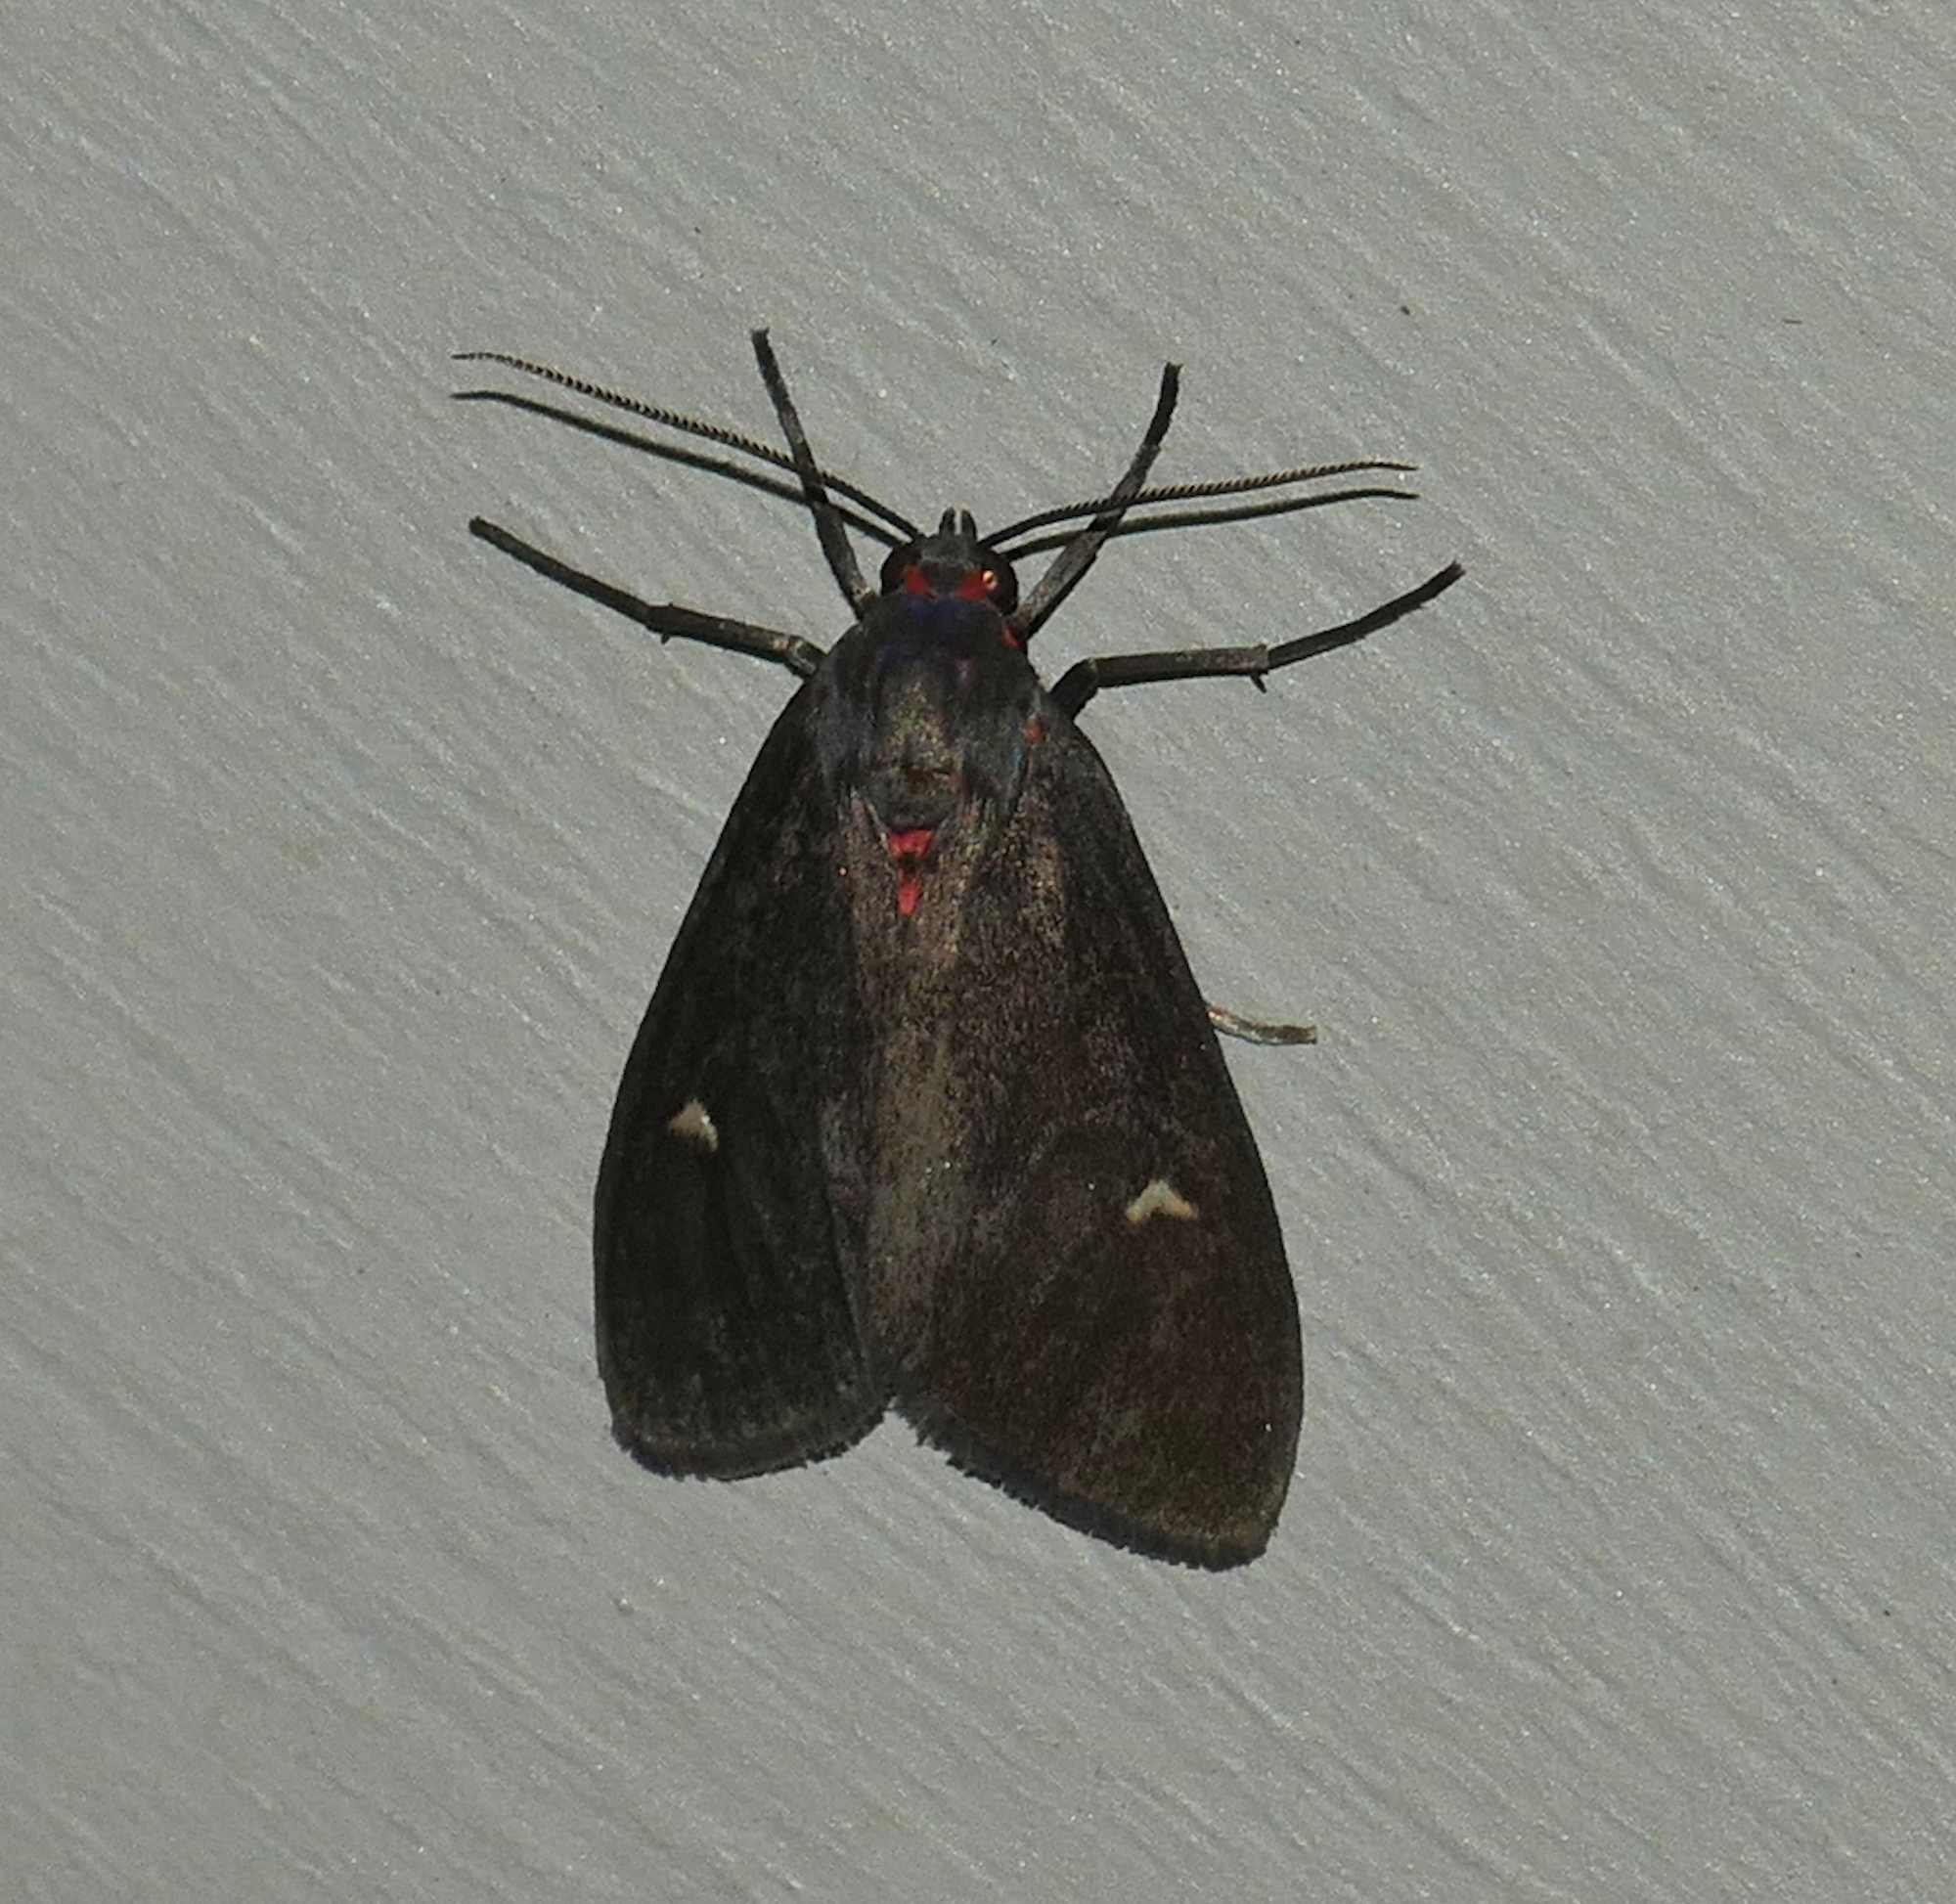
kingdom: Animalia
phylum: Arthropoda
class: Insecta
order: Lepidoptera
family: Erebidae
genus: Euchaetes
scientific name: Euchaetes zella
